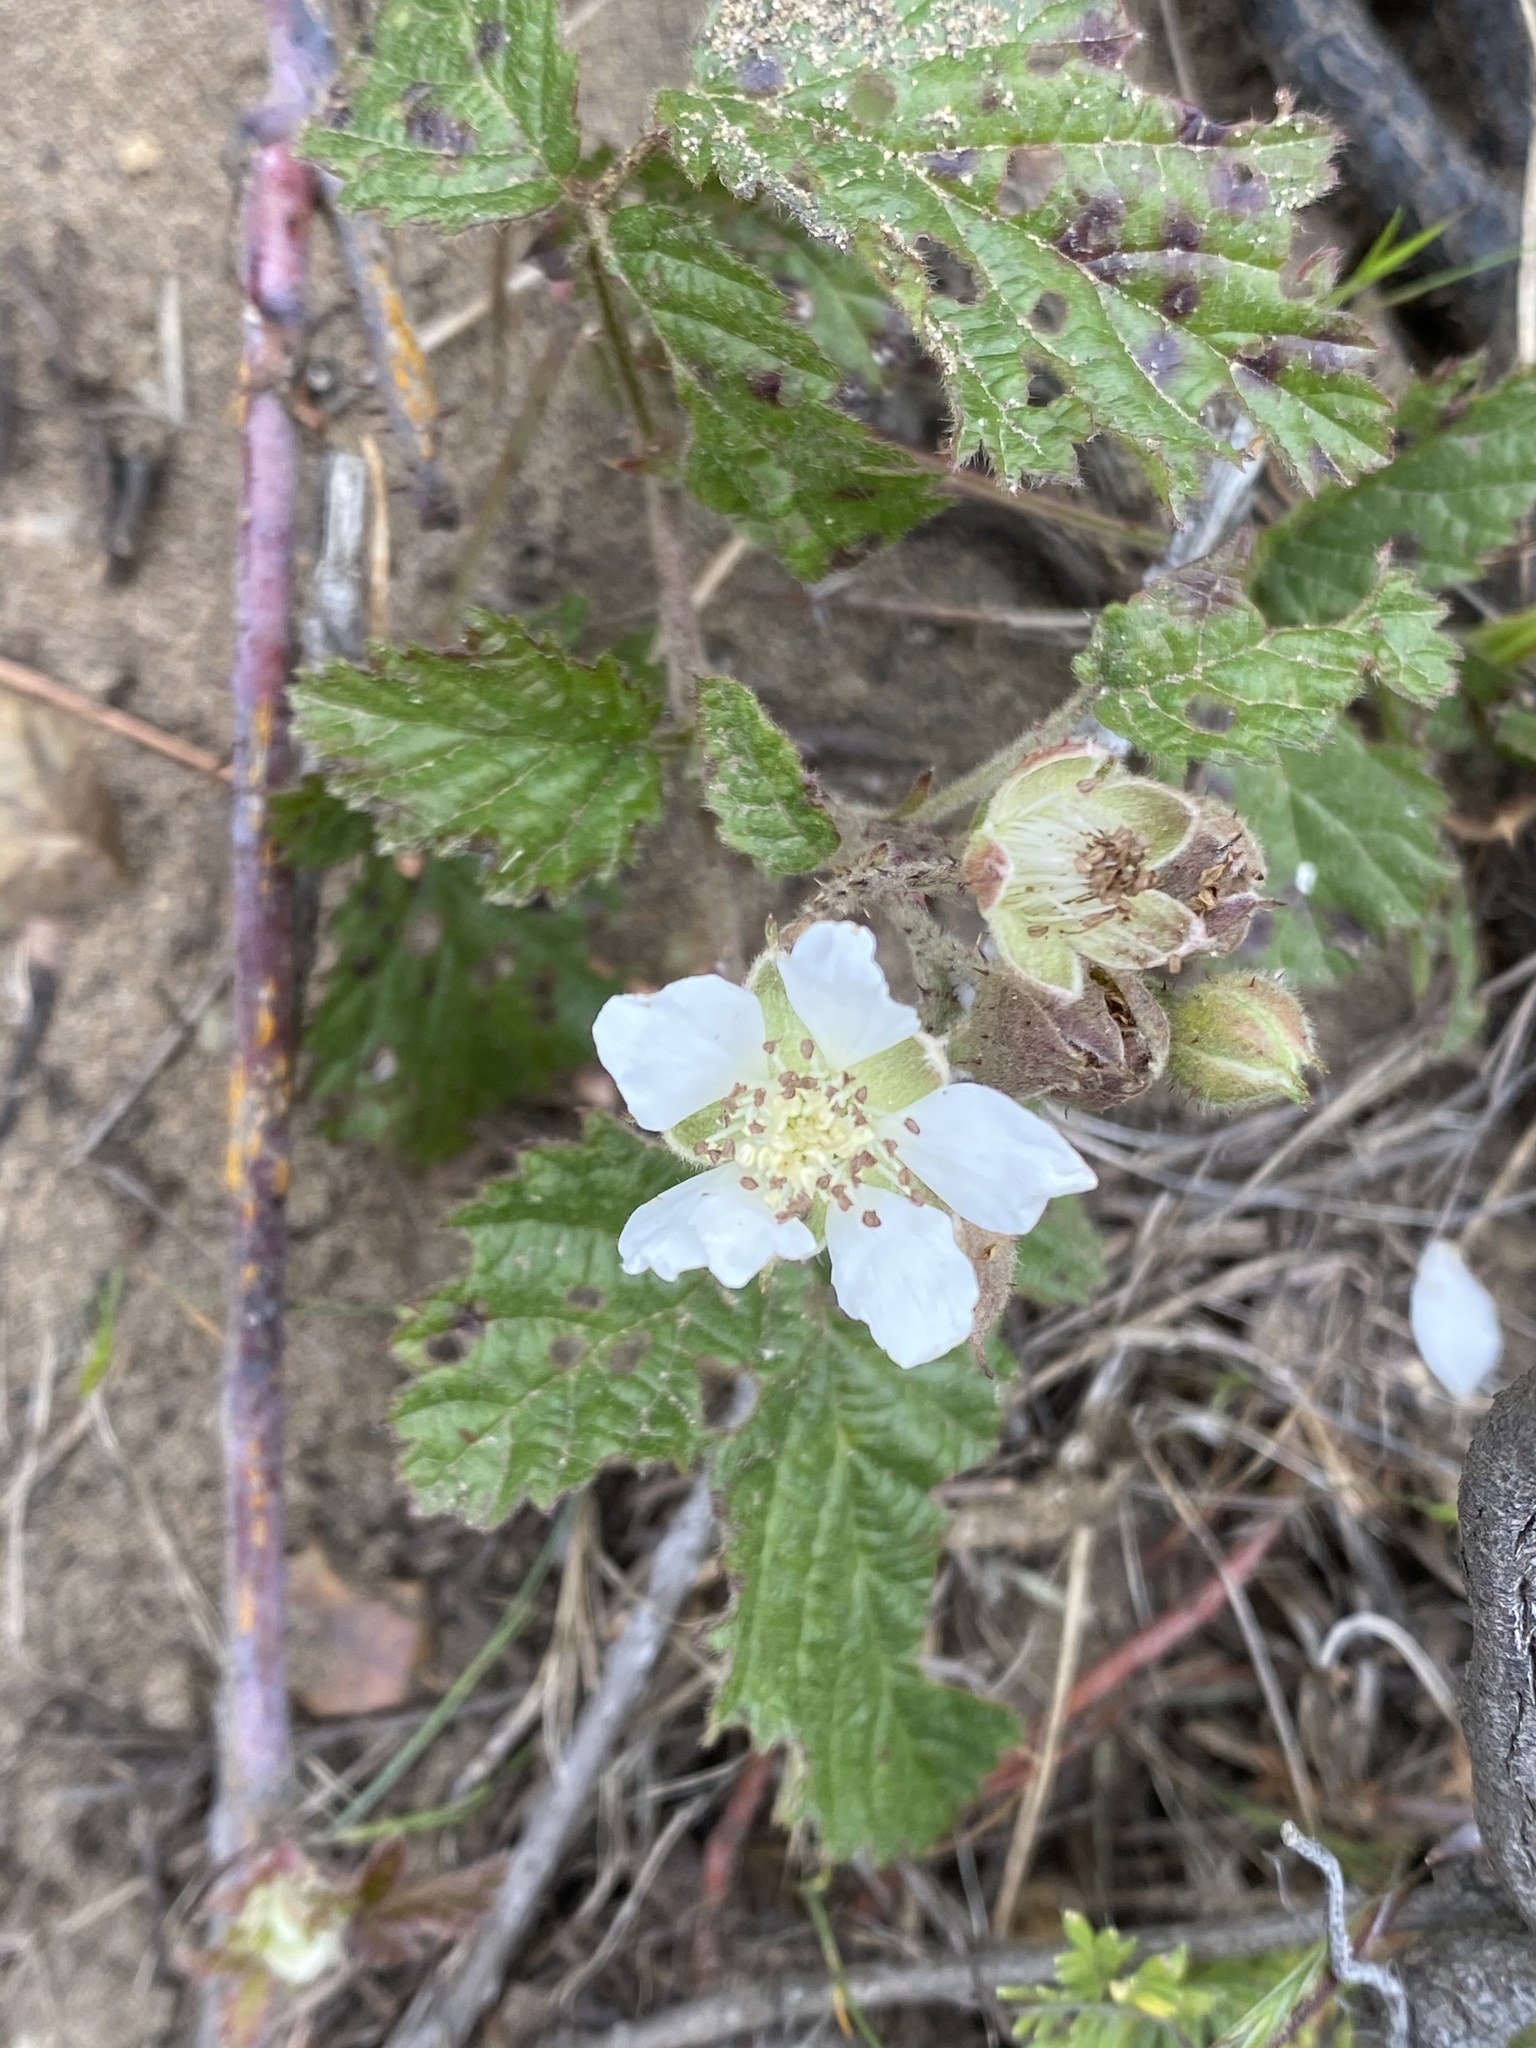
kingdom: Plantae
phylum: Tracheophyta
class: Magnoliopsida
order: Rosales
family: Rosaceae
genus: Rubus
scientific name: Rubus ursinus
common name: Pacific blackberry
